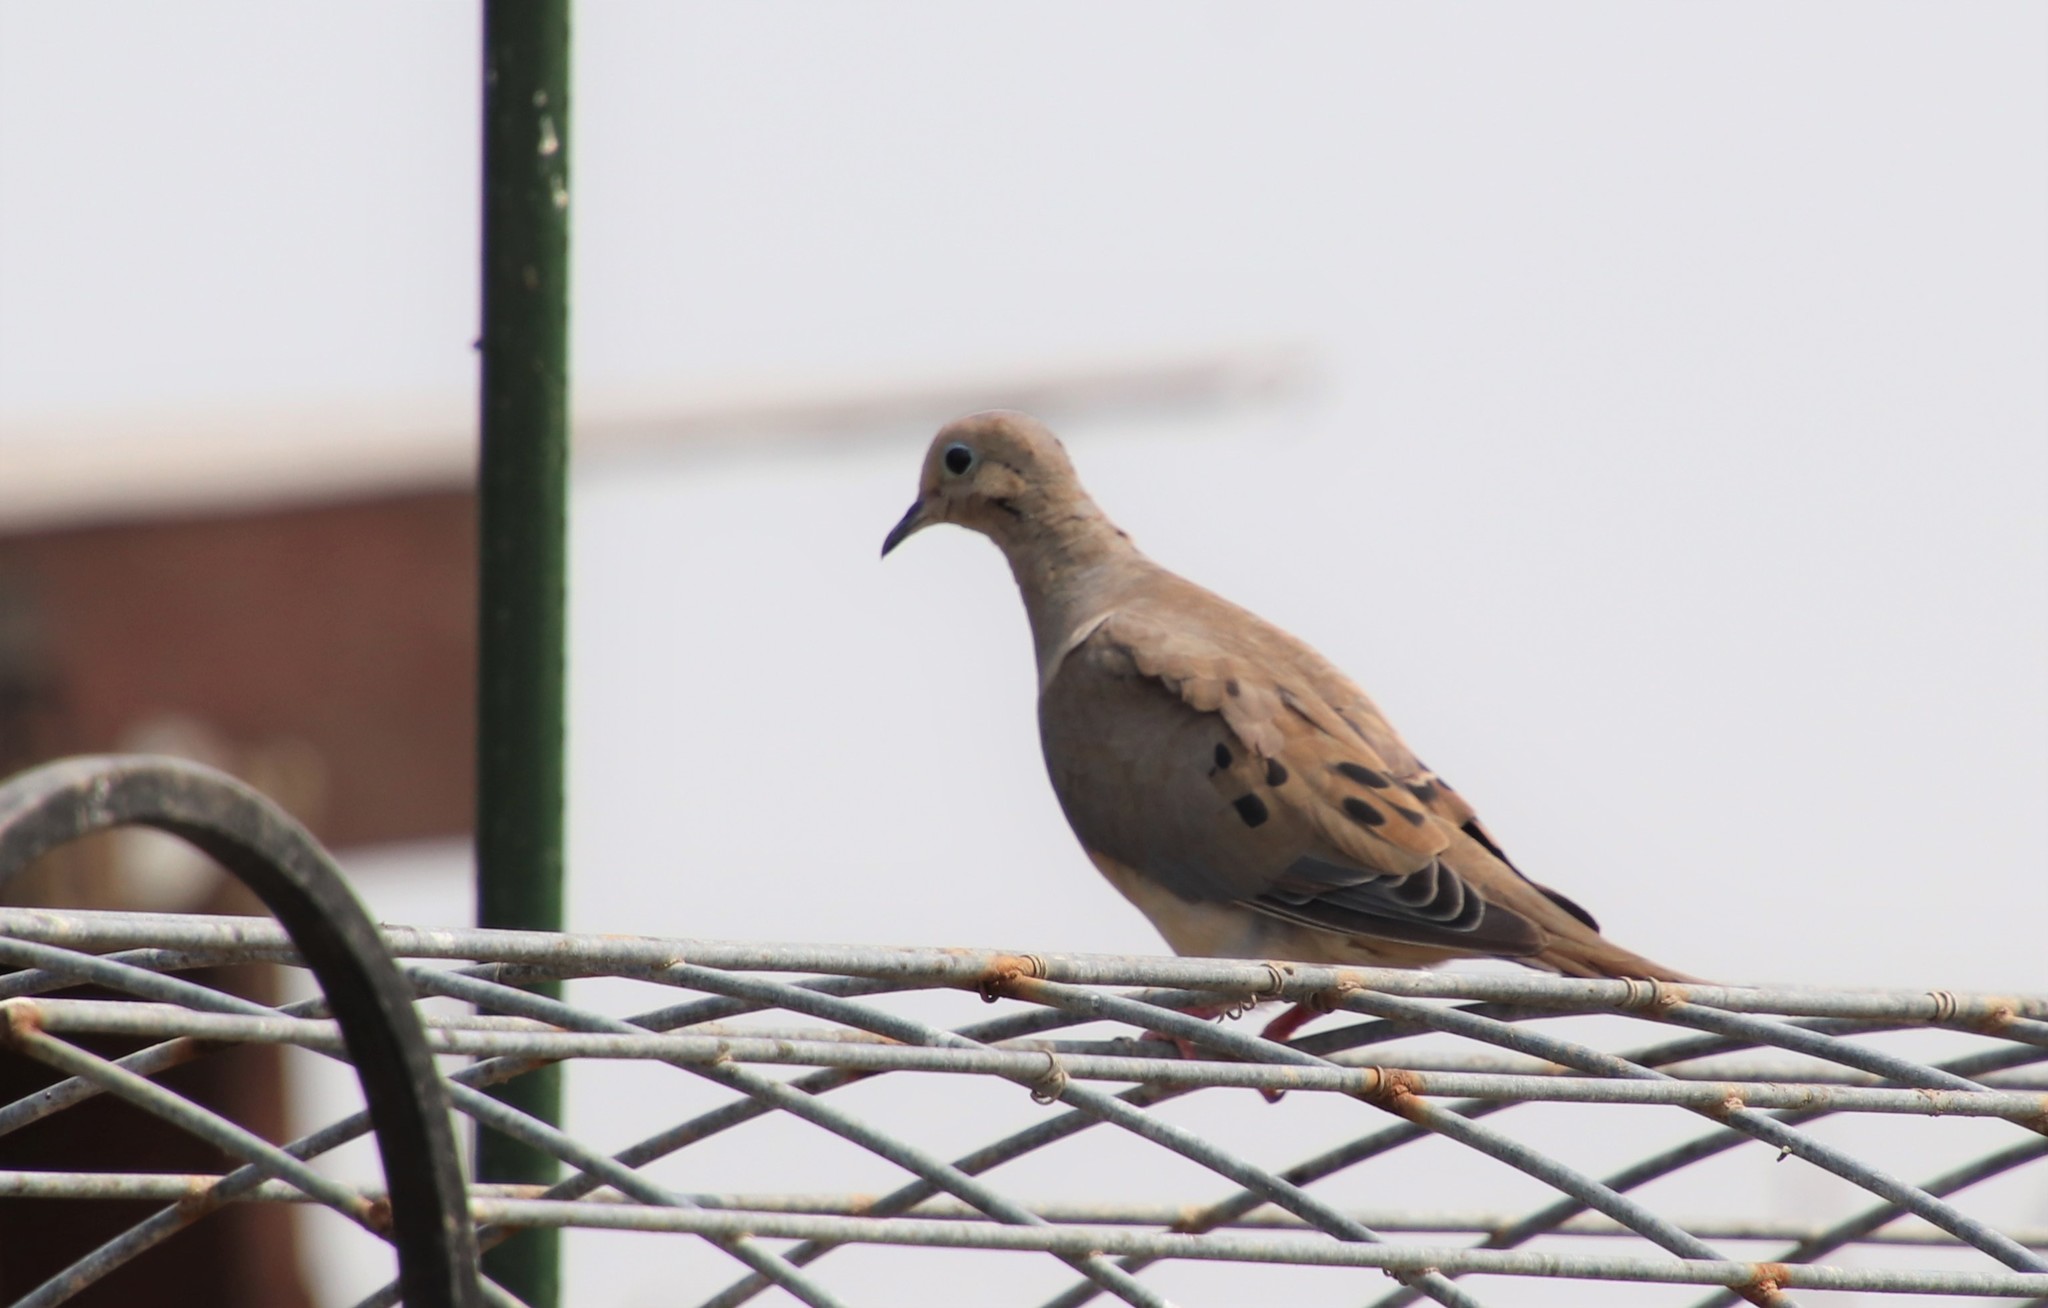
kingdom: Animalia
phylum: Chordata
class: Aves
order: Columbiformes
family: Columbidae
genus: Zenaida
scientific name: Zenaida macroura
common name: Mourning dove
